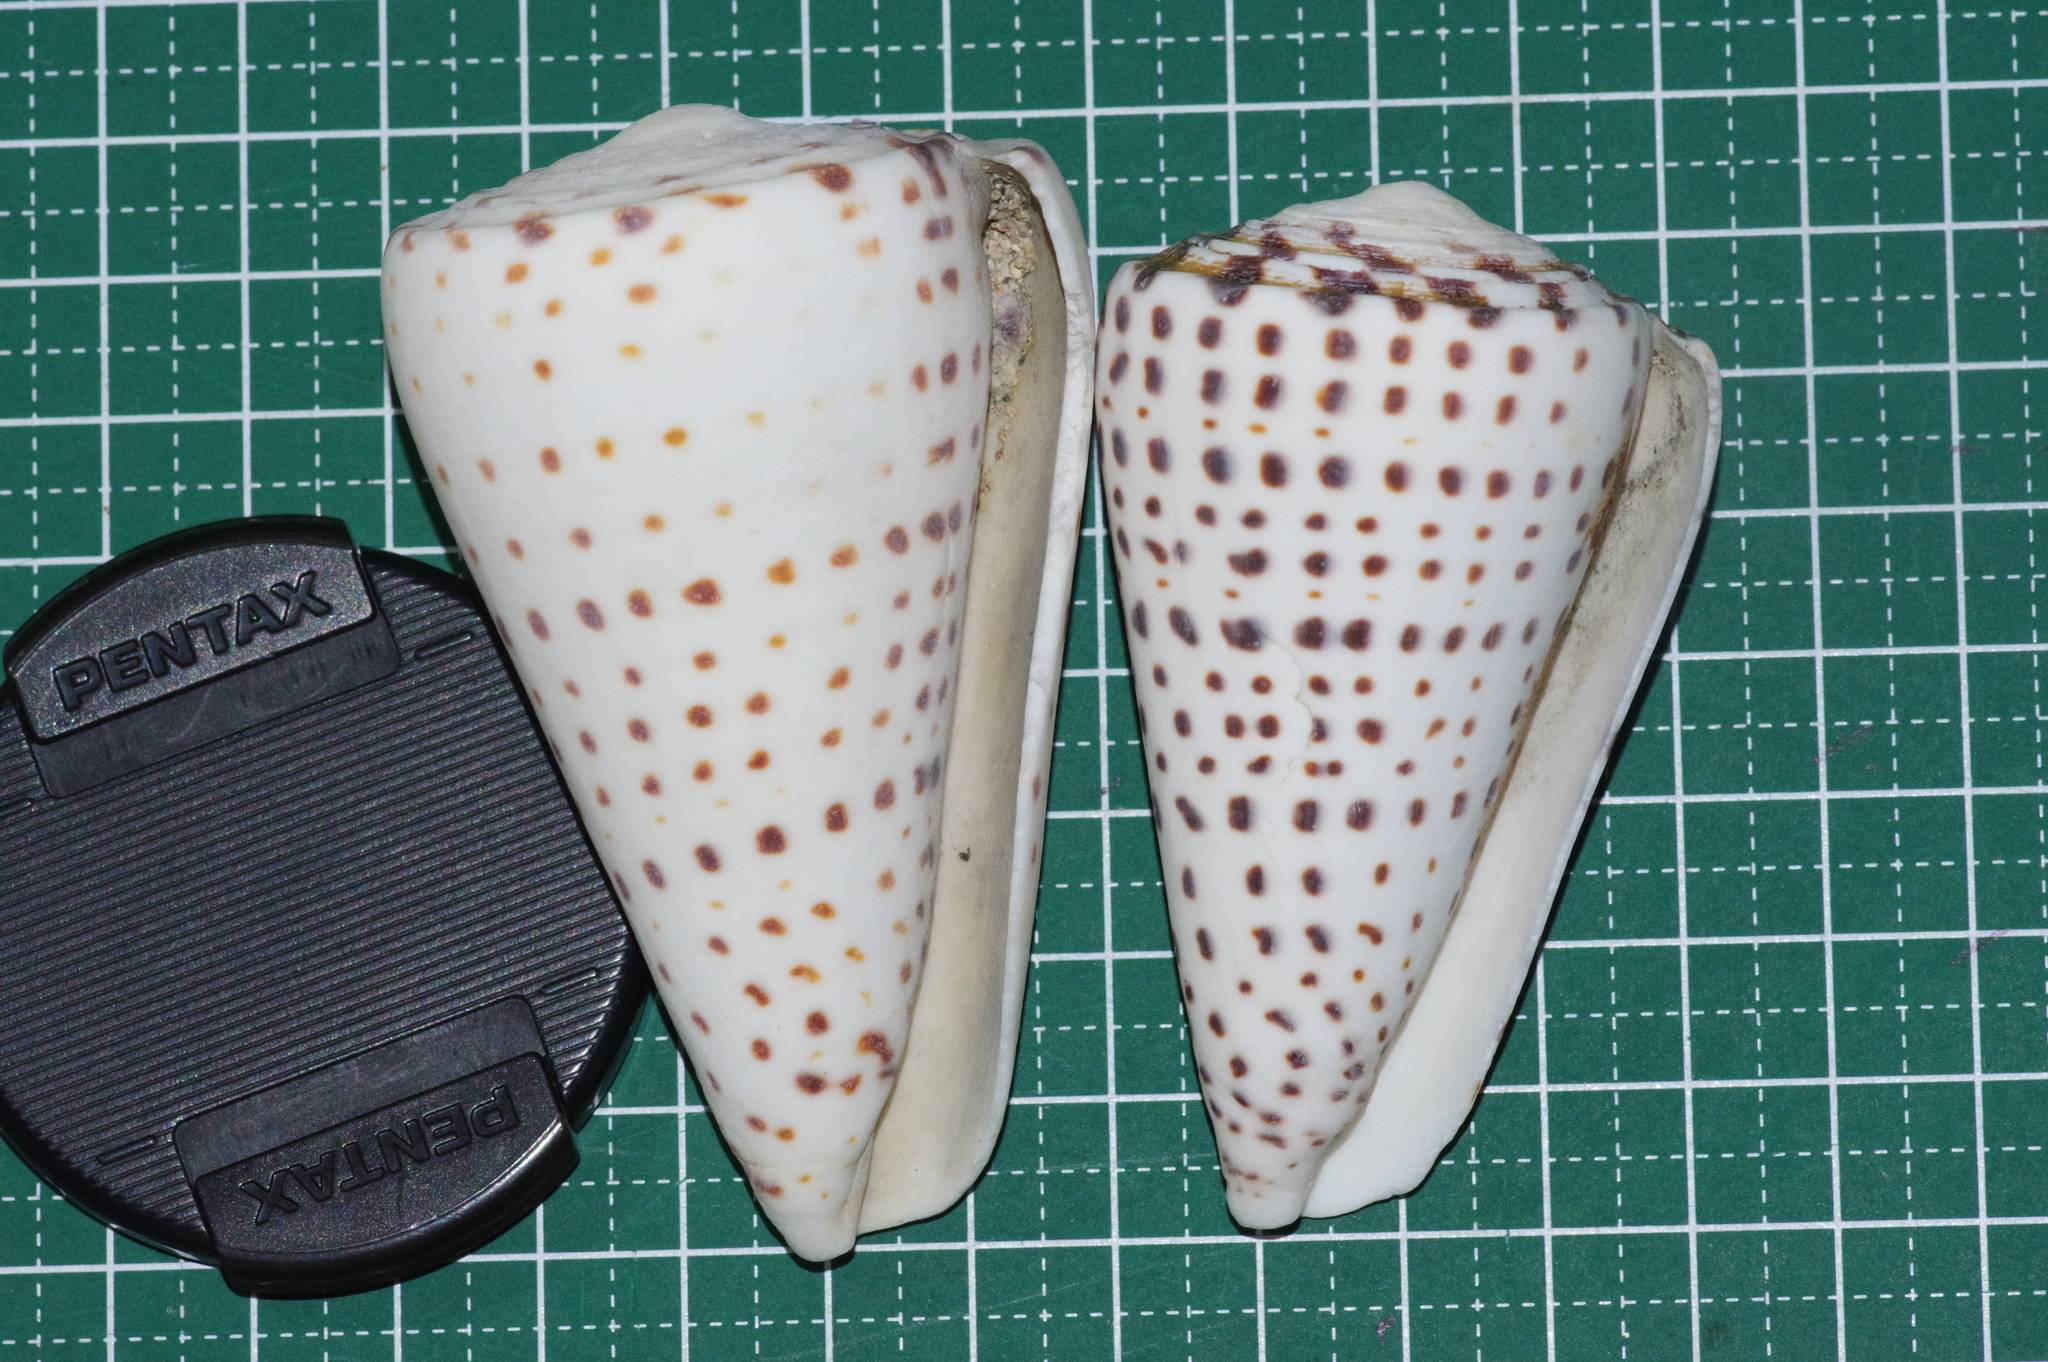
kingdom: Animalia
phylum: Mollusca
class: Gastropoda
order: Neogastropoda
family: Conidae
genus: Conus
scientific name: Conus leopardus
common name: Leopard cone
